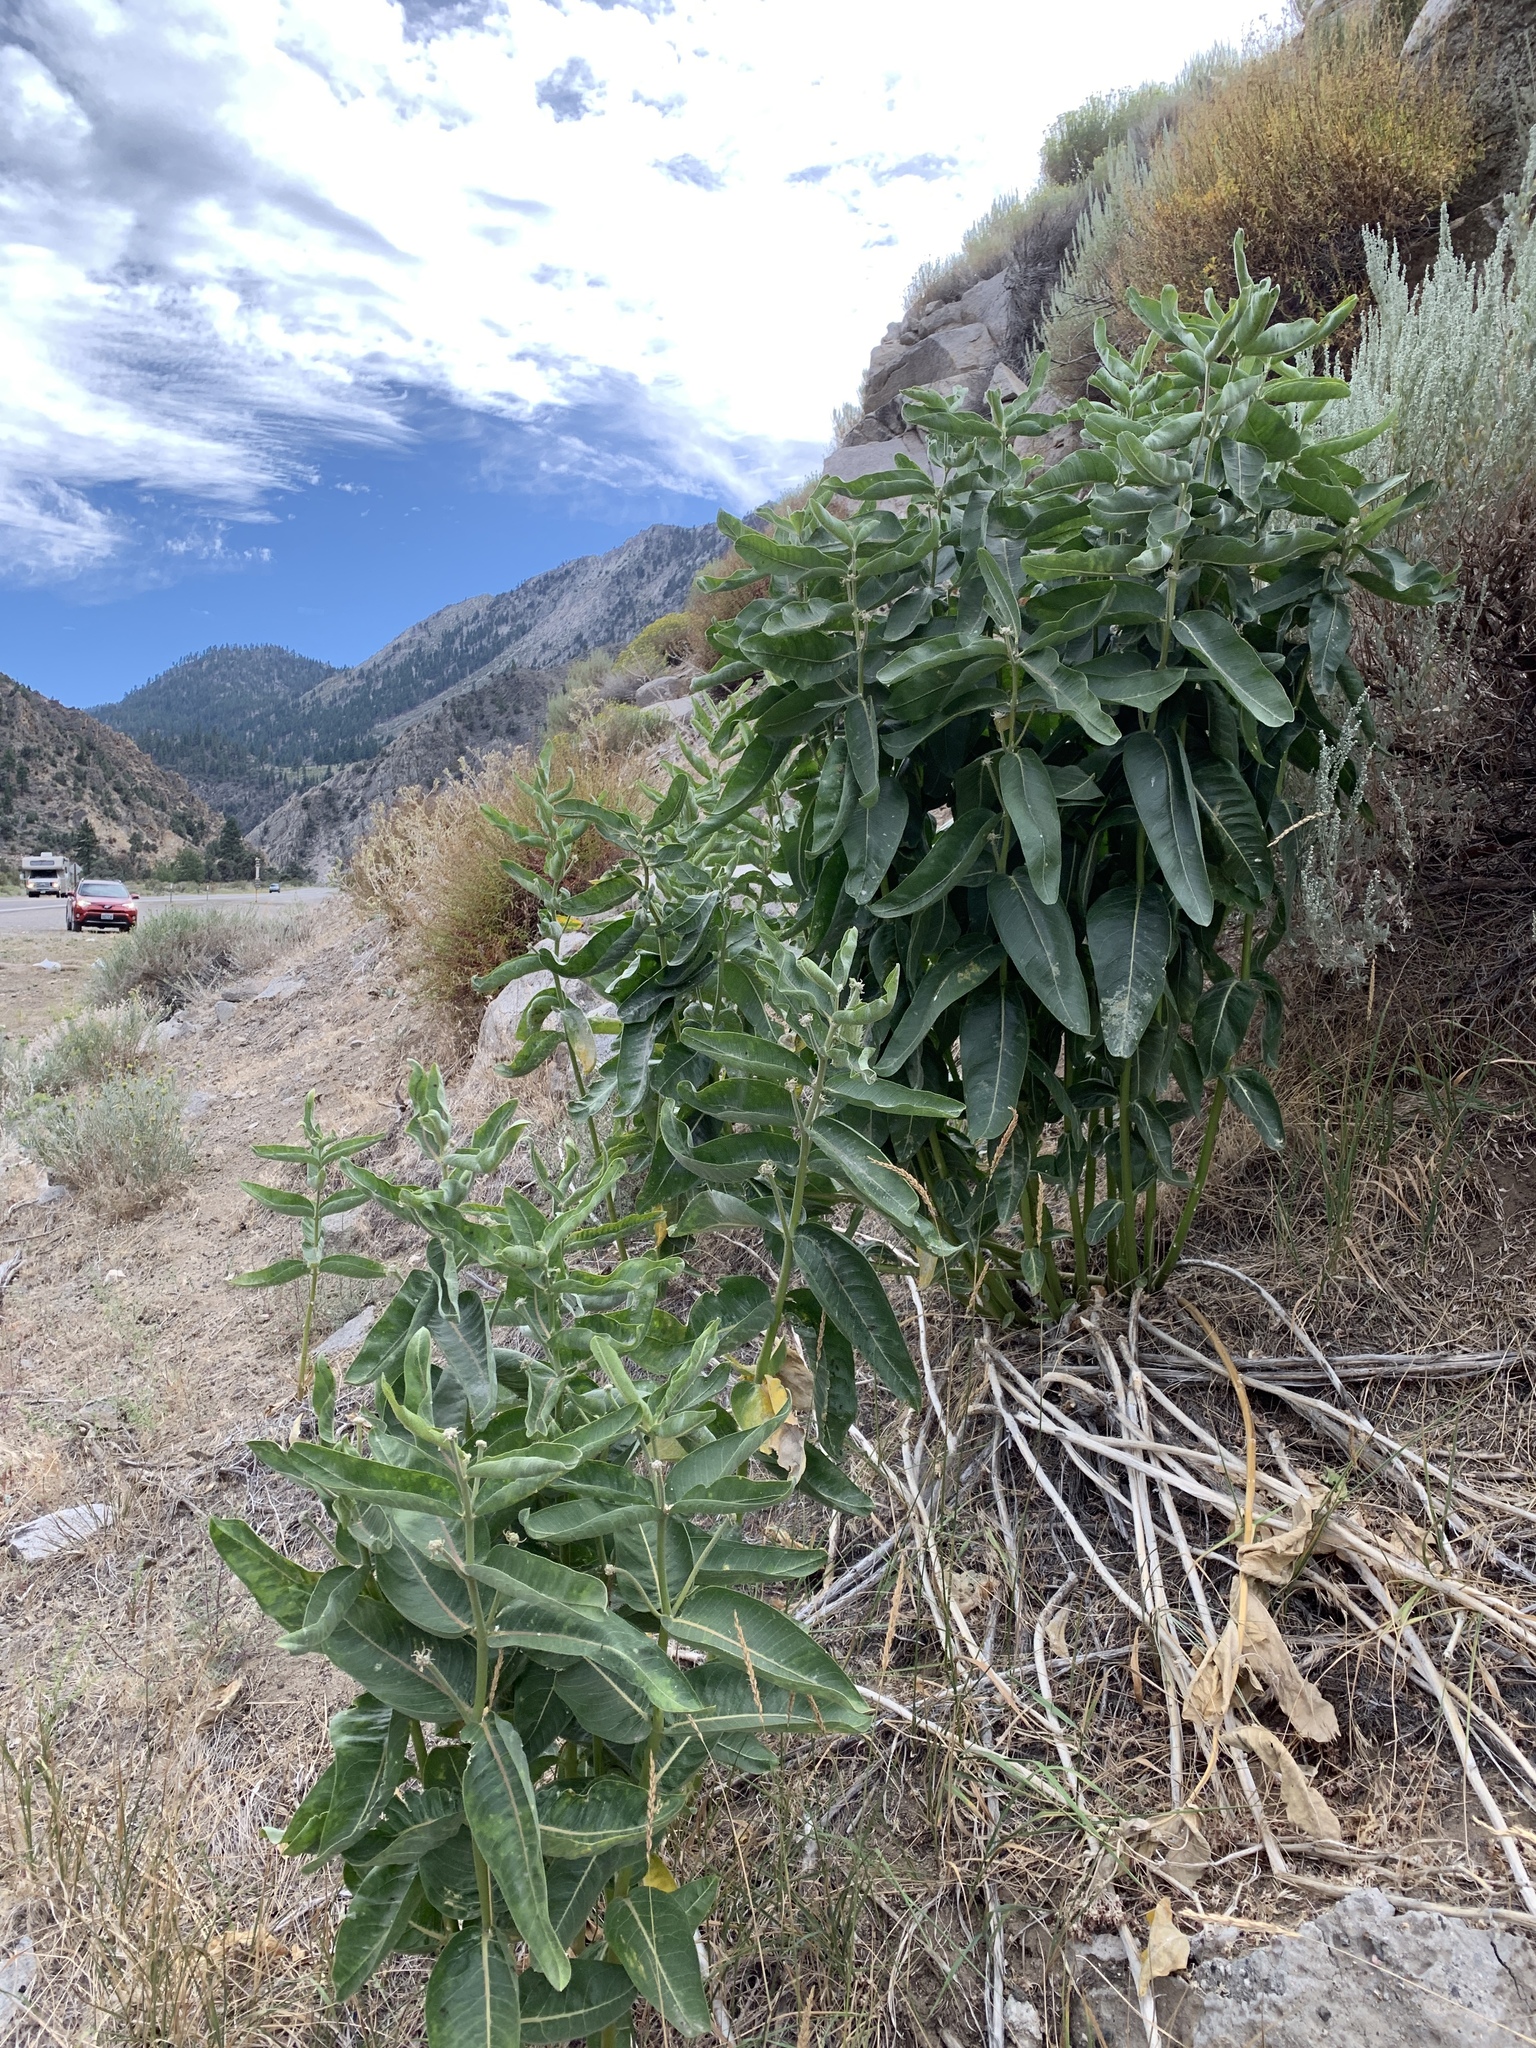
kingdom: Plantae
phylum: Tracheophyta
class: Magnoliopsida
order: Gentianales
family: Apocynaceae
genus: Asclepias
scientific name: Asclepias speciosa
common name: Showy milkweed
